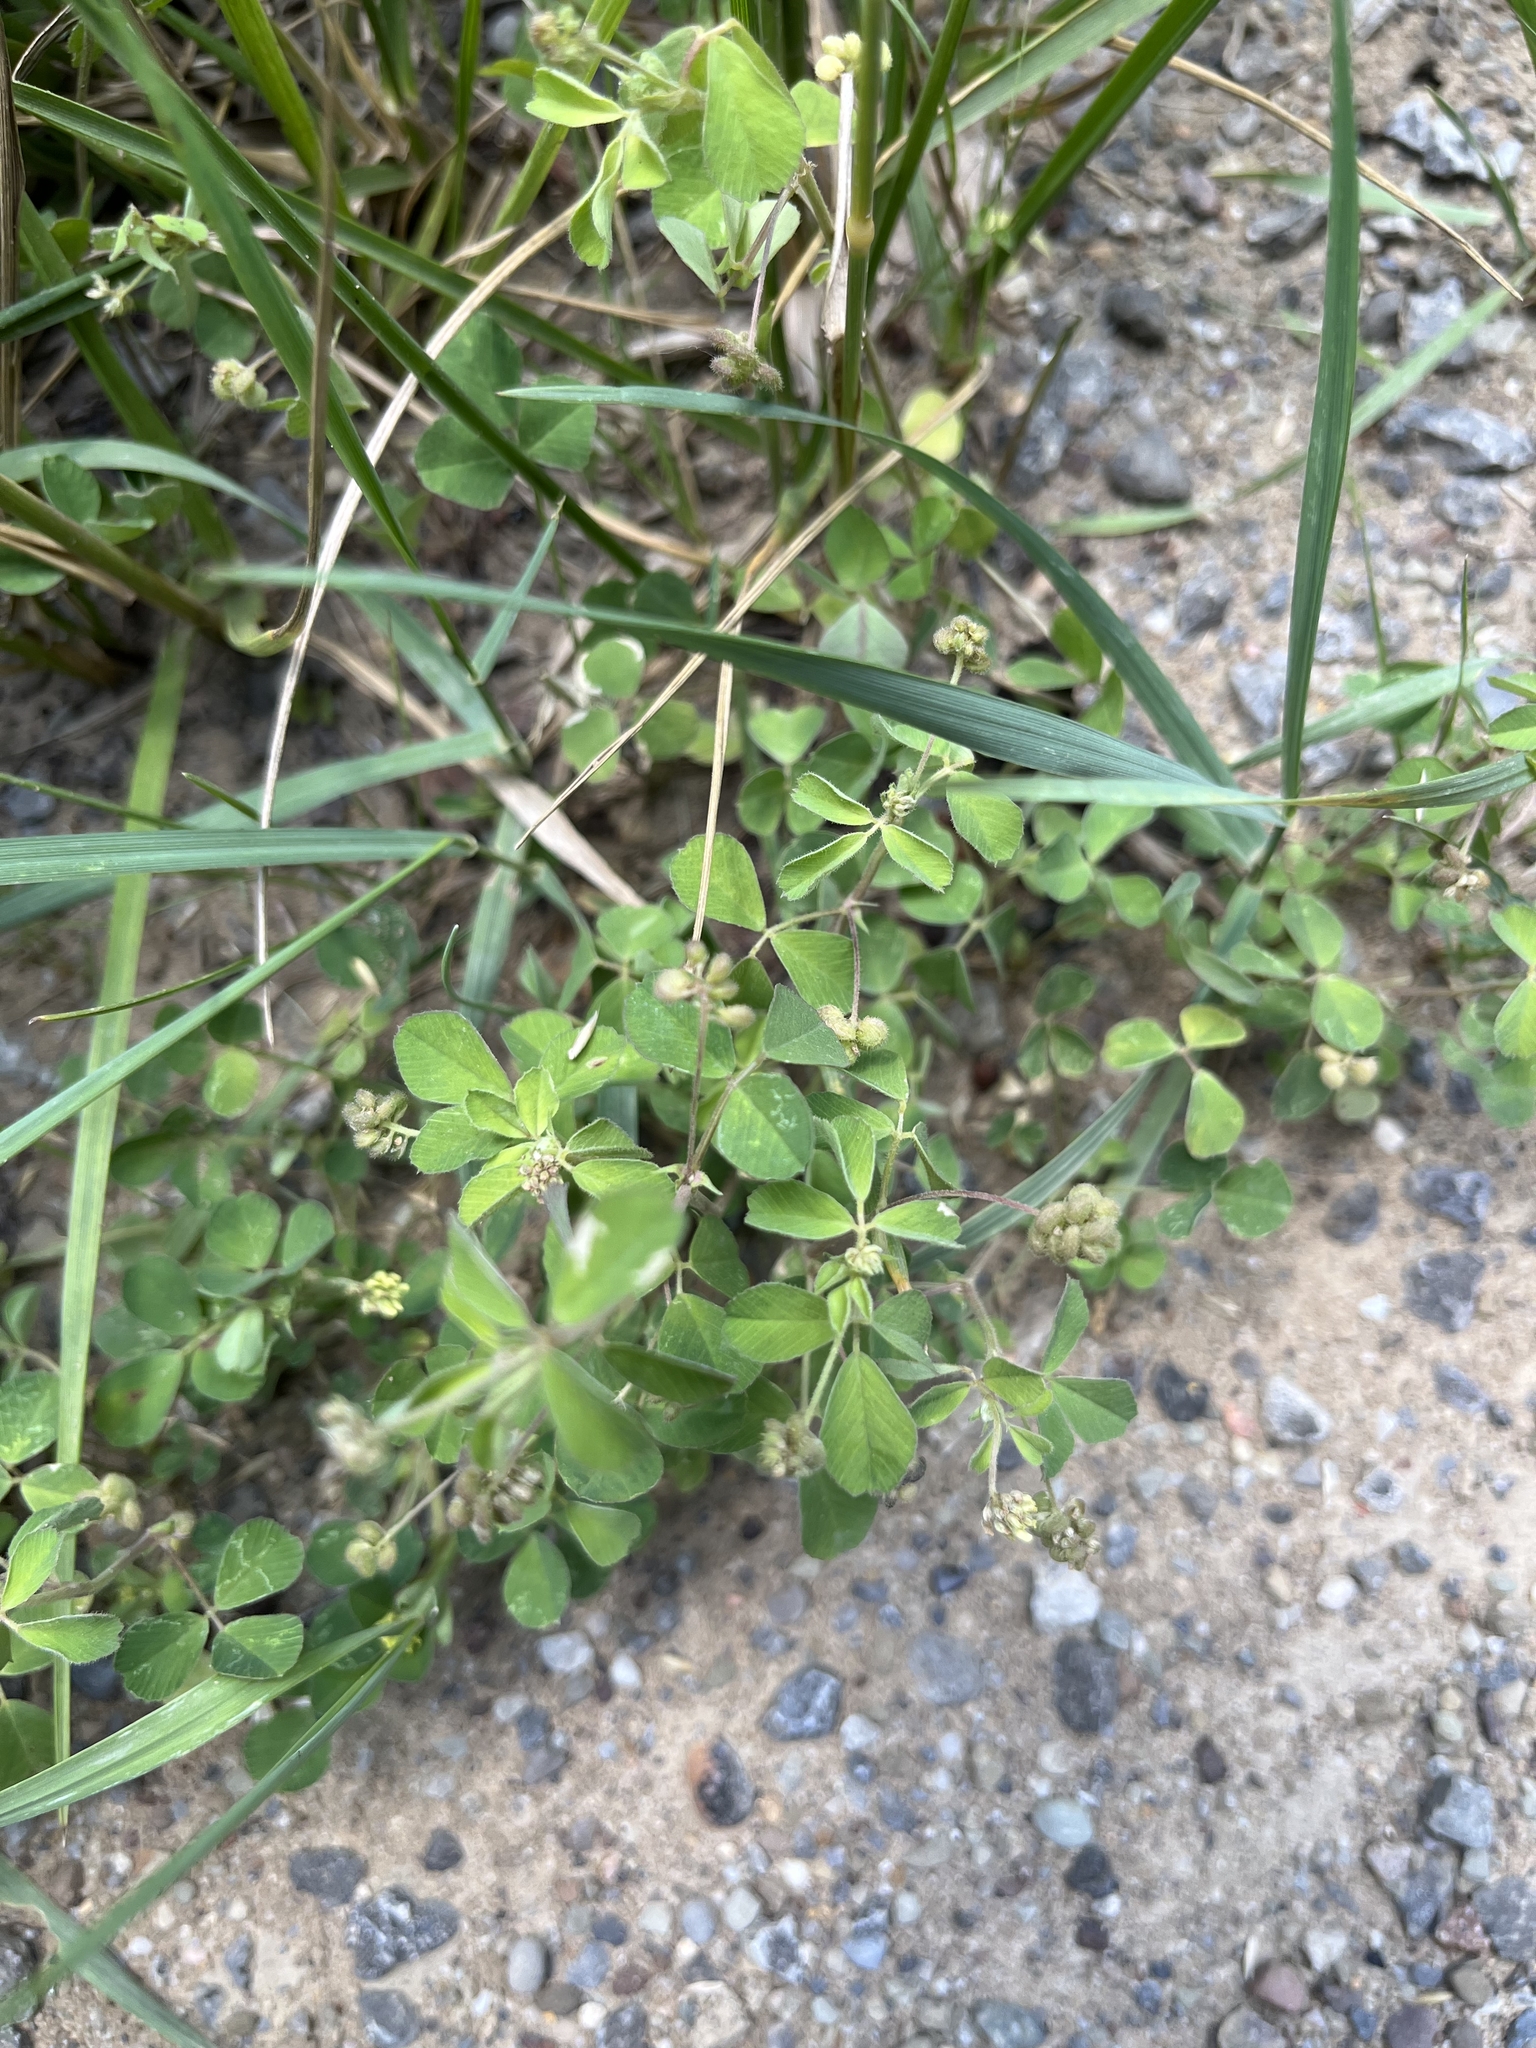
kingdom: Plantae
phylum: Tracheophyta
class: Magnoliopsida
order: Fabales
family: Fabaceae
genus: Medicago
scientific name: Medicago lupulina
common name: Black medick
